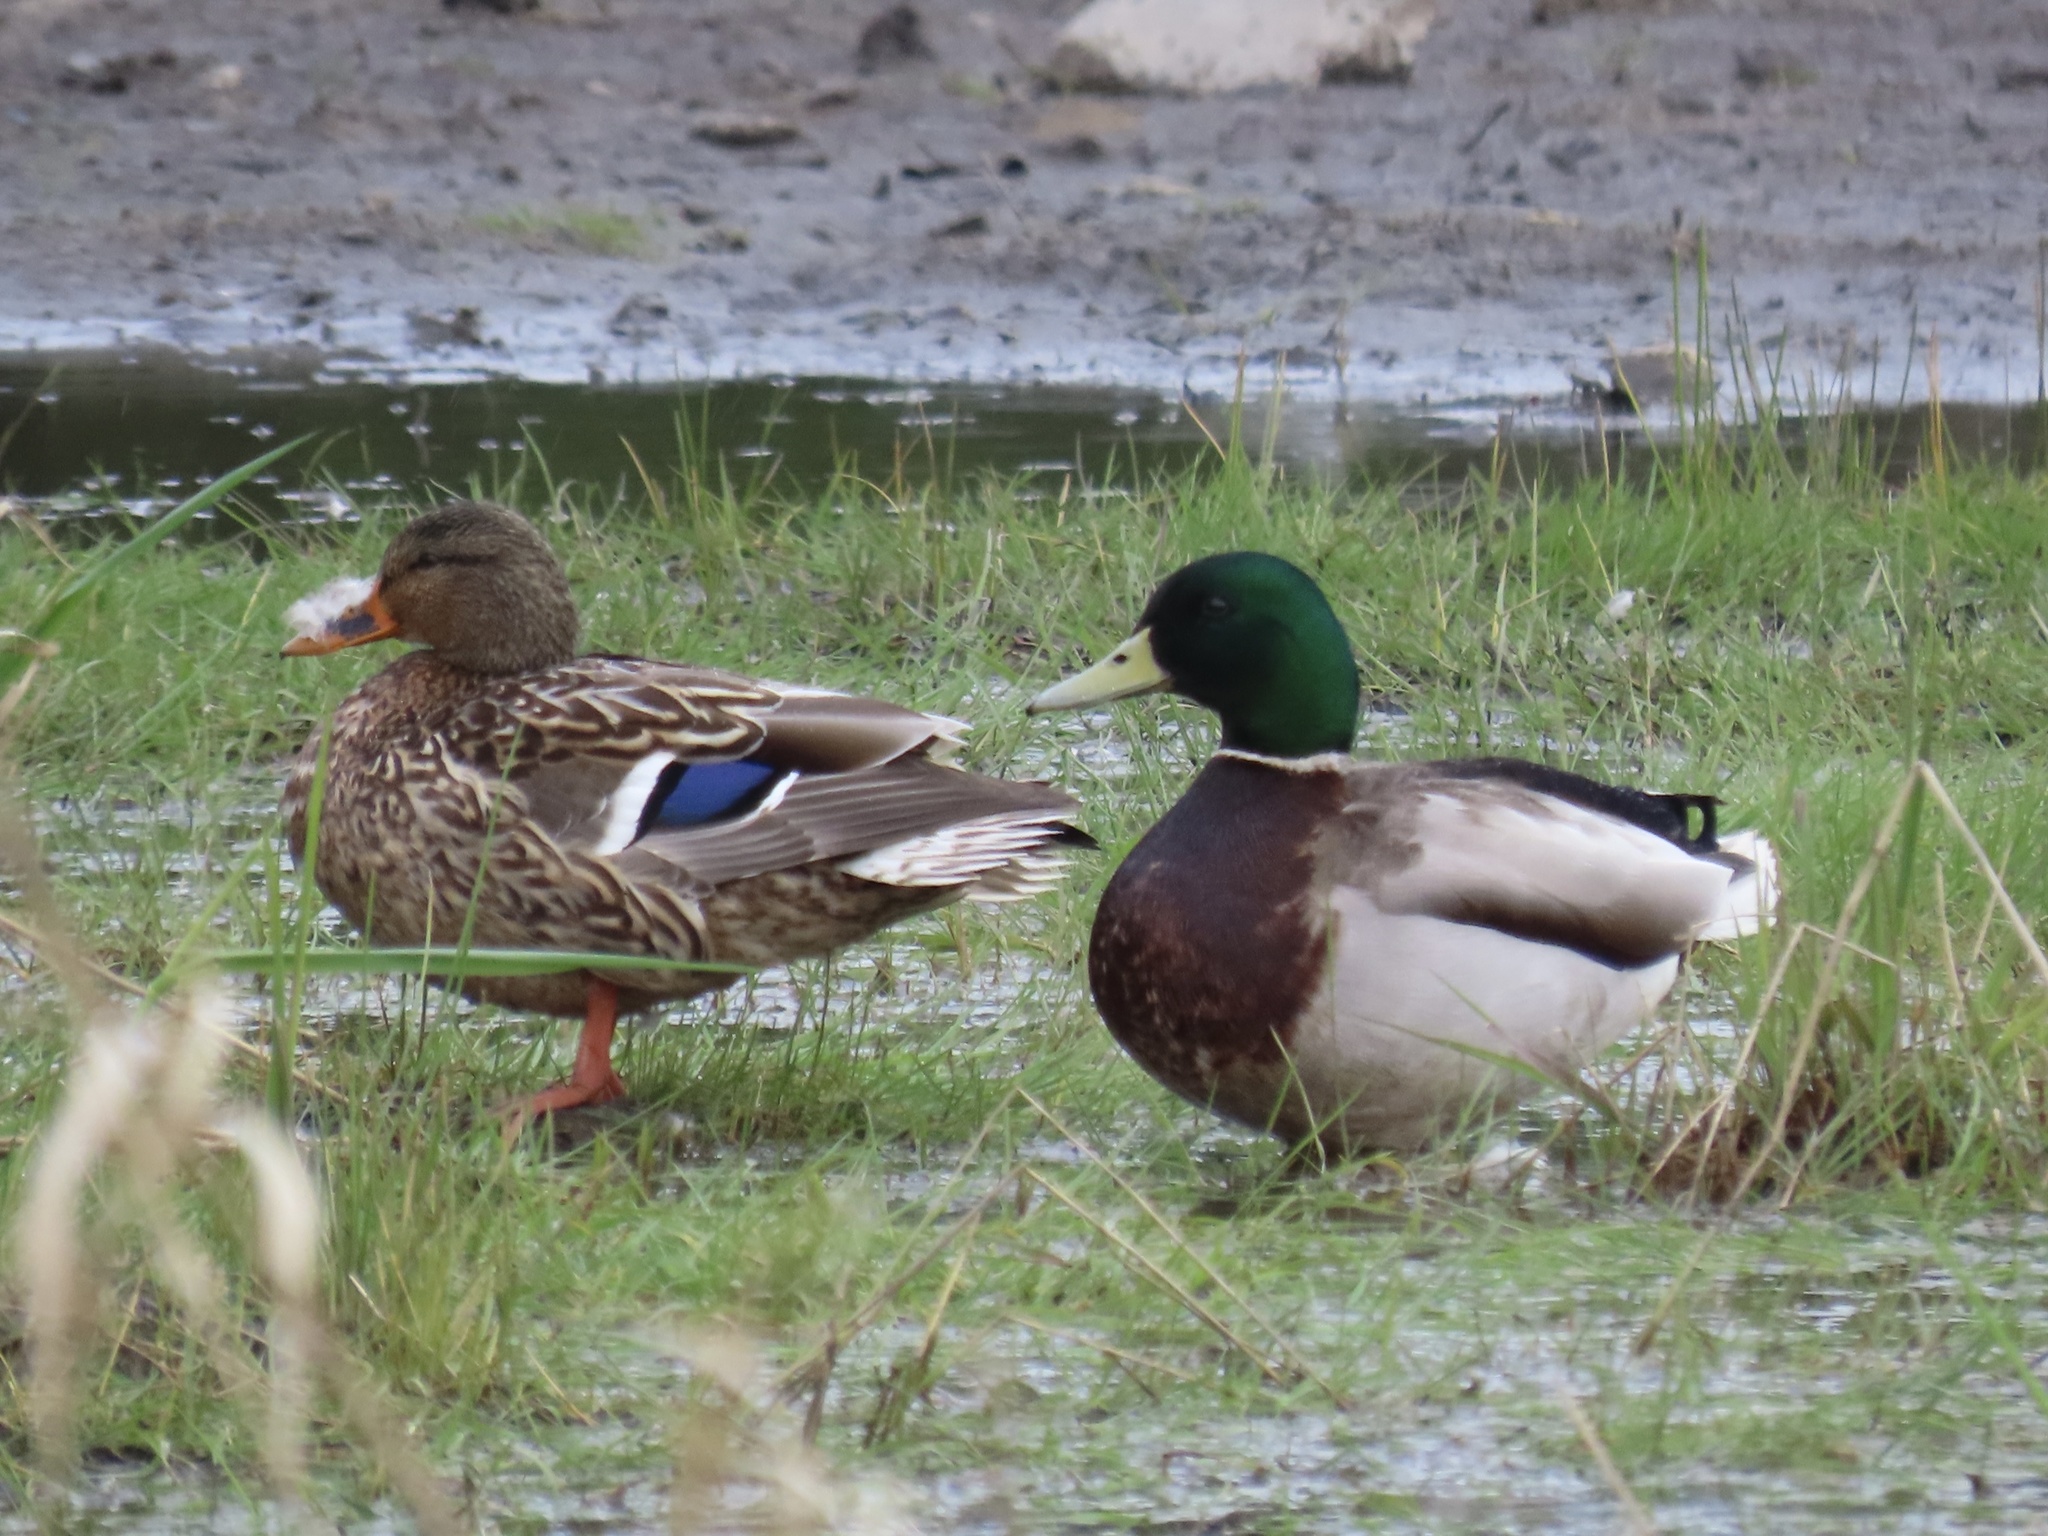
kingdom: Animalia
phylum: Chordata
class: Aves
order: Anseriformes
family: Anatidae
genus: Anas
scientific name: Anas platyrhynchos
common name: Mallard
